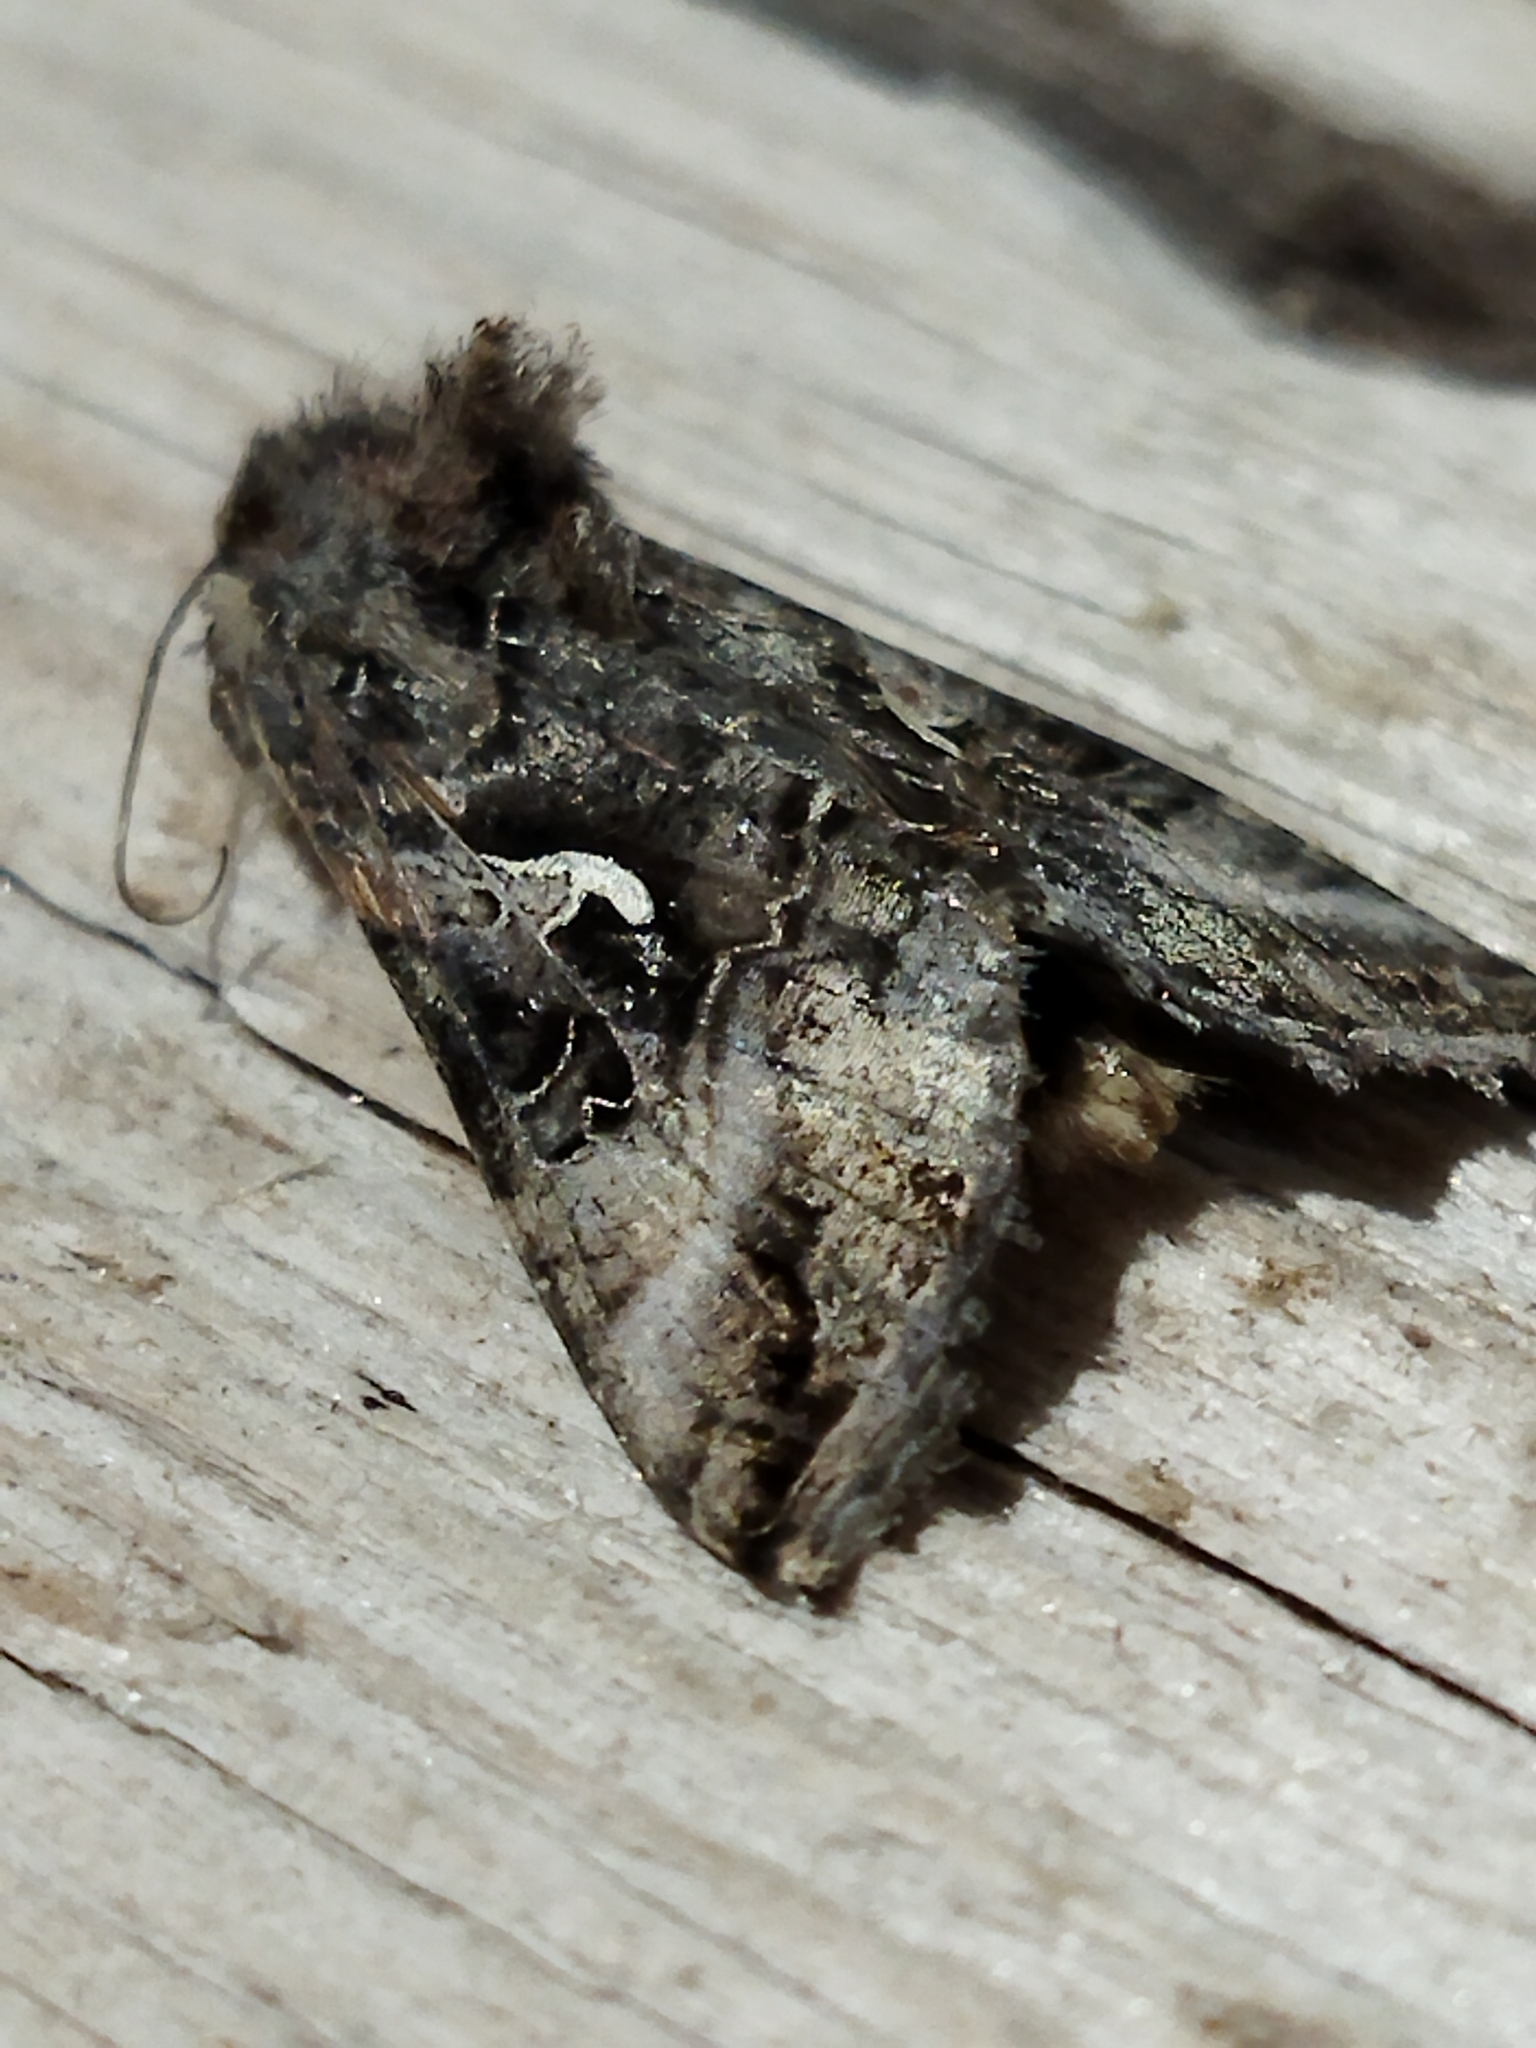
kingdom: Animalia
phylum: Arthropoda
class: Insecta
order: Lepidoptera
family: Noctuidae
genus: Autographa
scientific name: Autographa gamma
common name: Silver y
